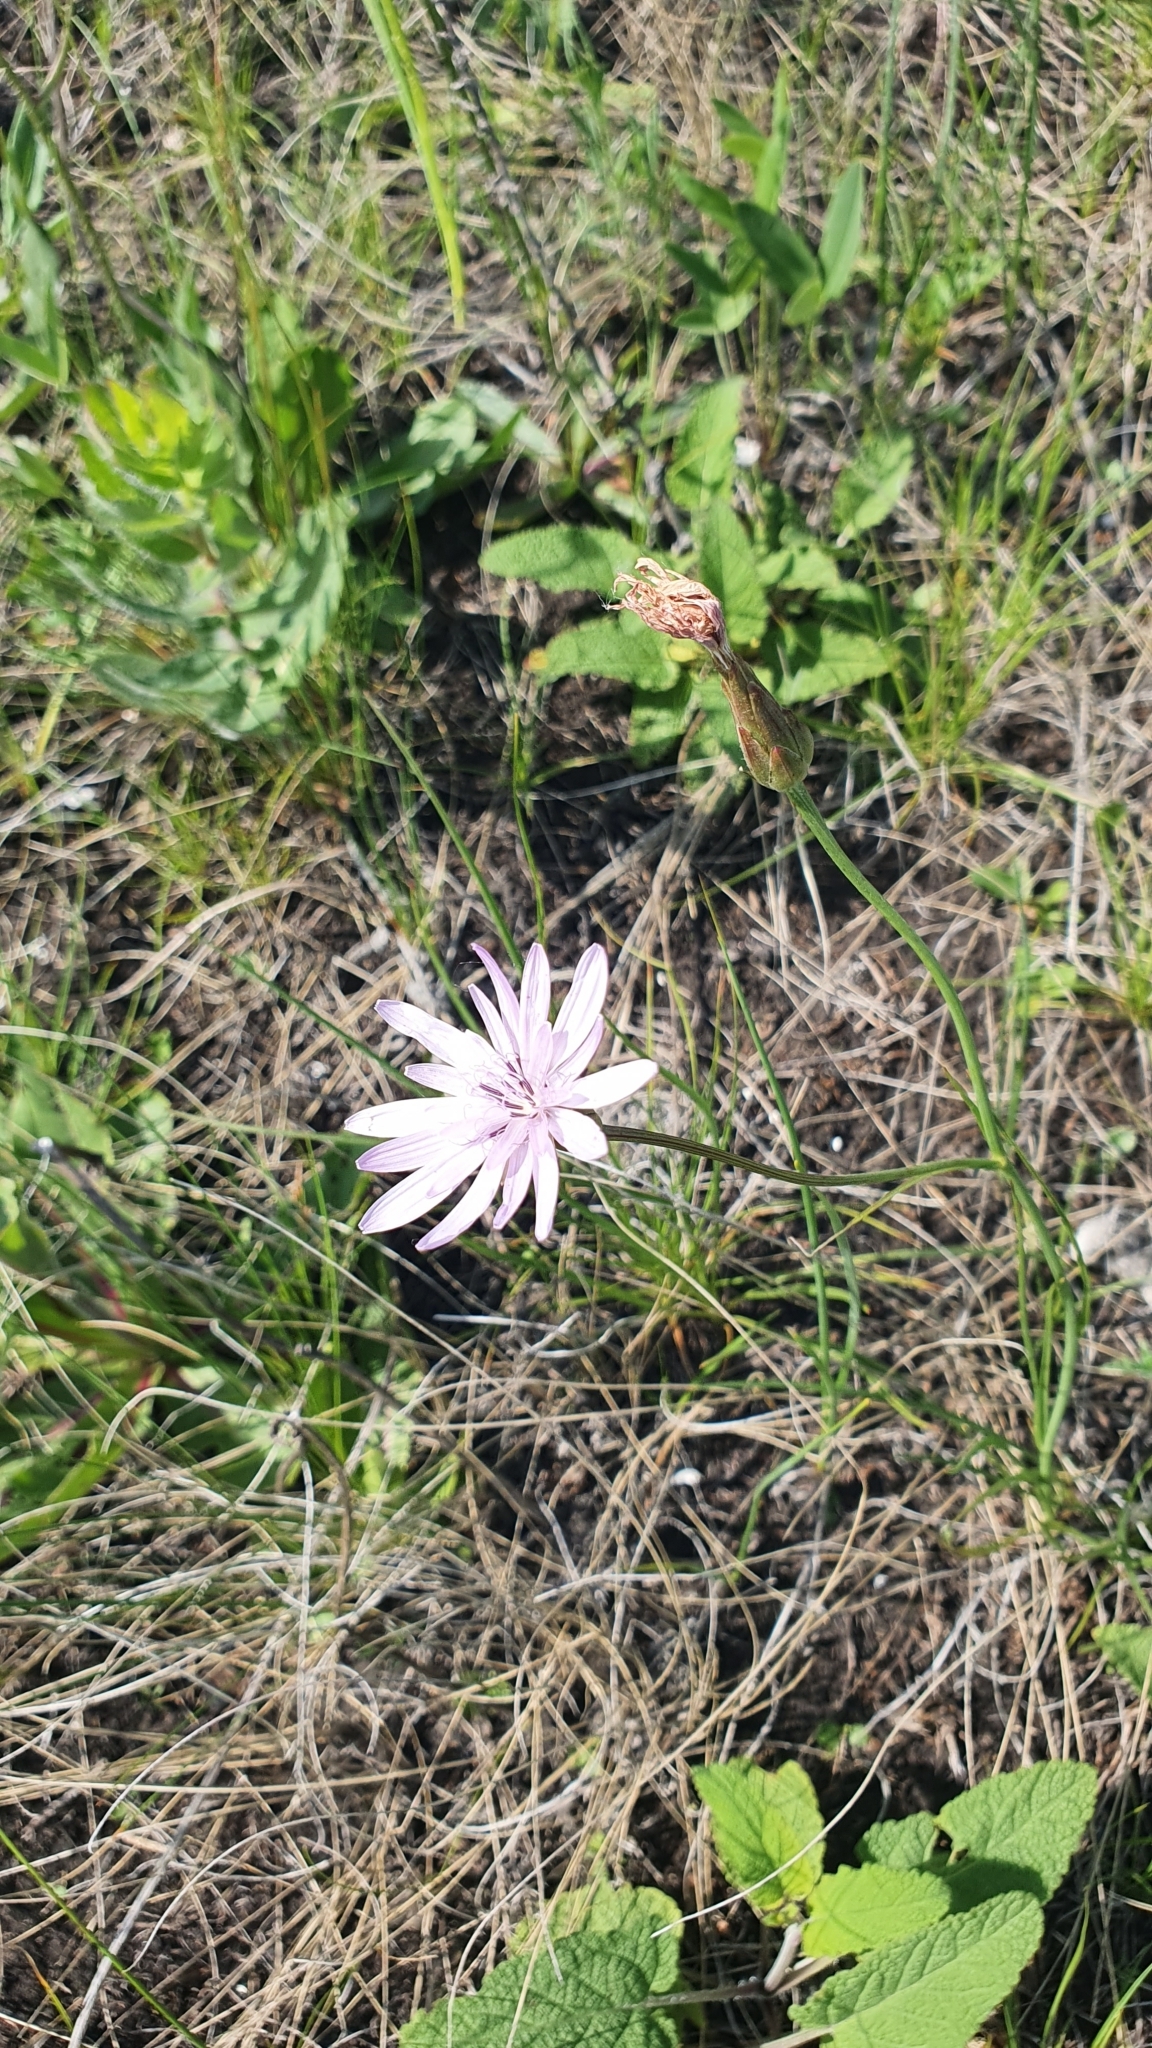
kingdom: Plantae
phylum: Tracheophyta
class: Magnoliopsida
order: Asterales
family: Asteraceae
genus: Scorzonera
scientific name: Scorzonera purpurea
